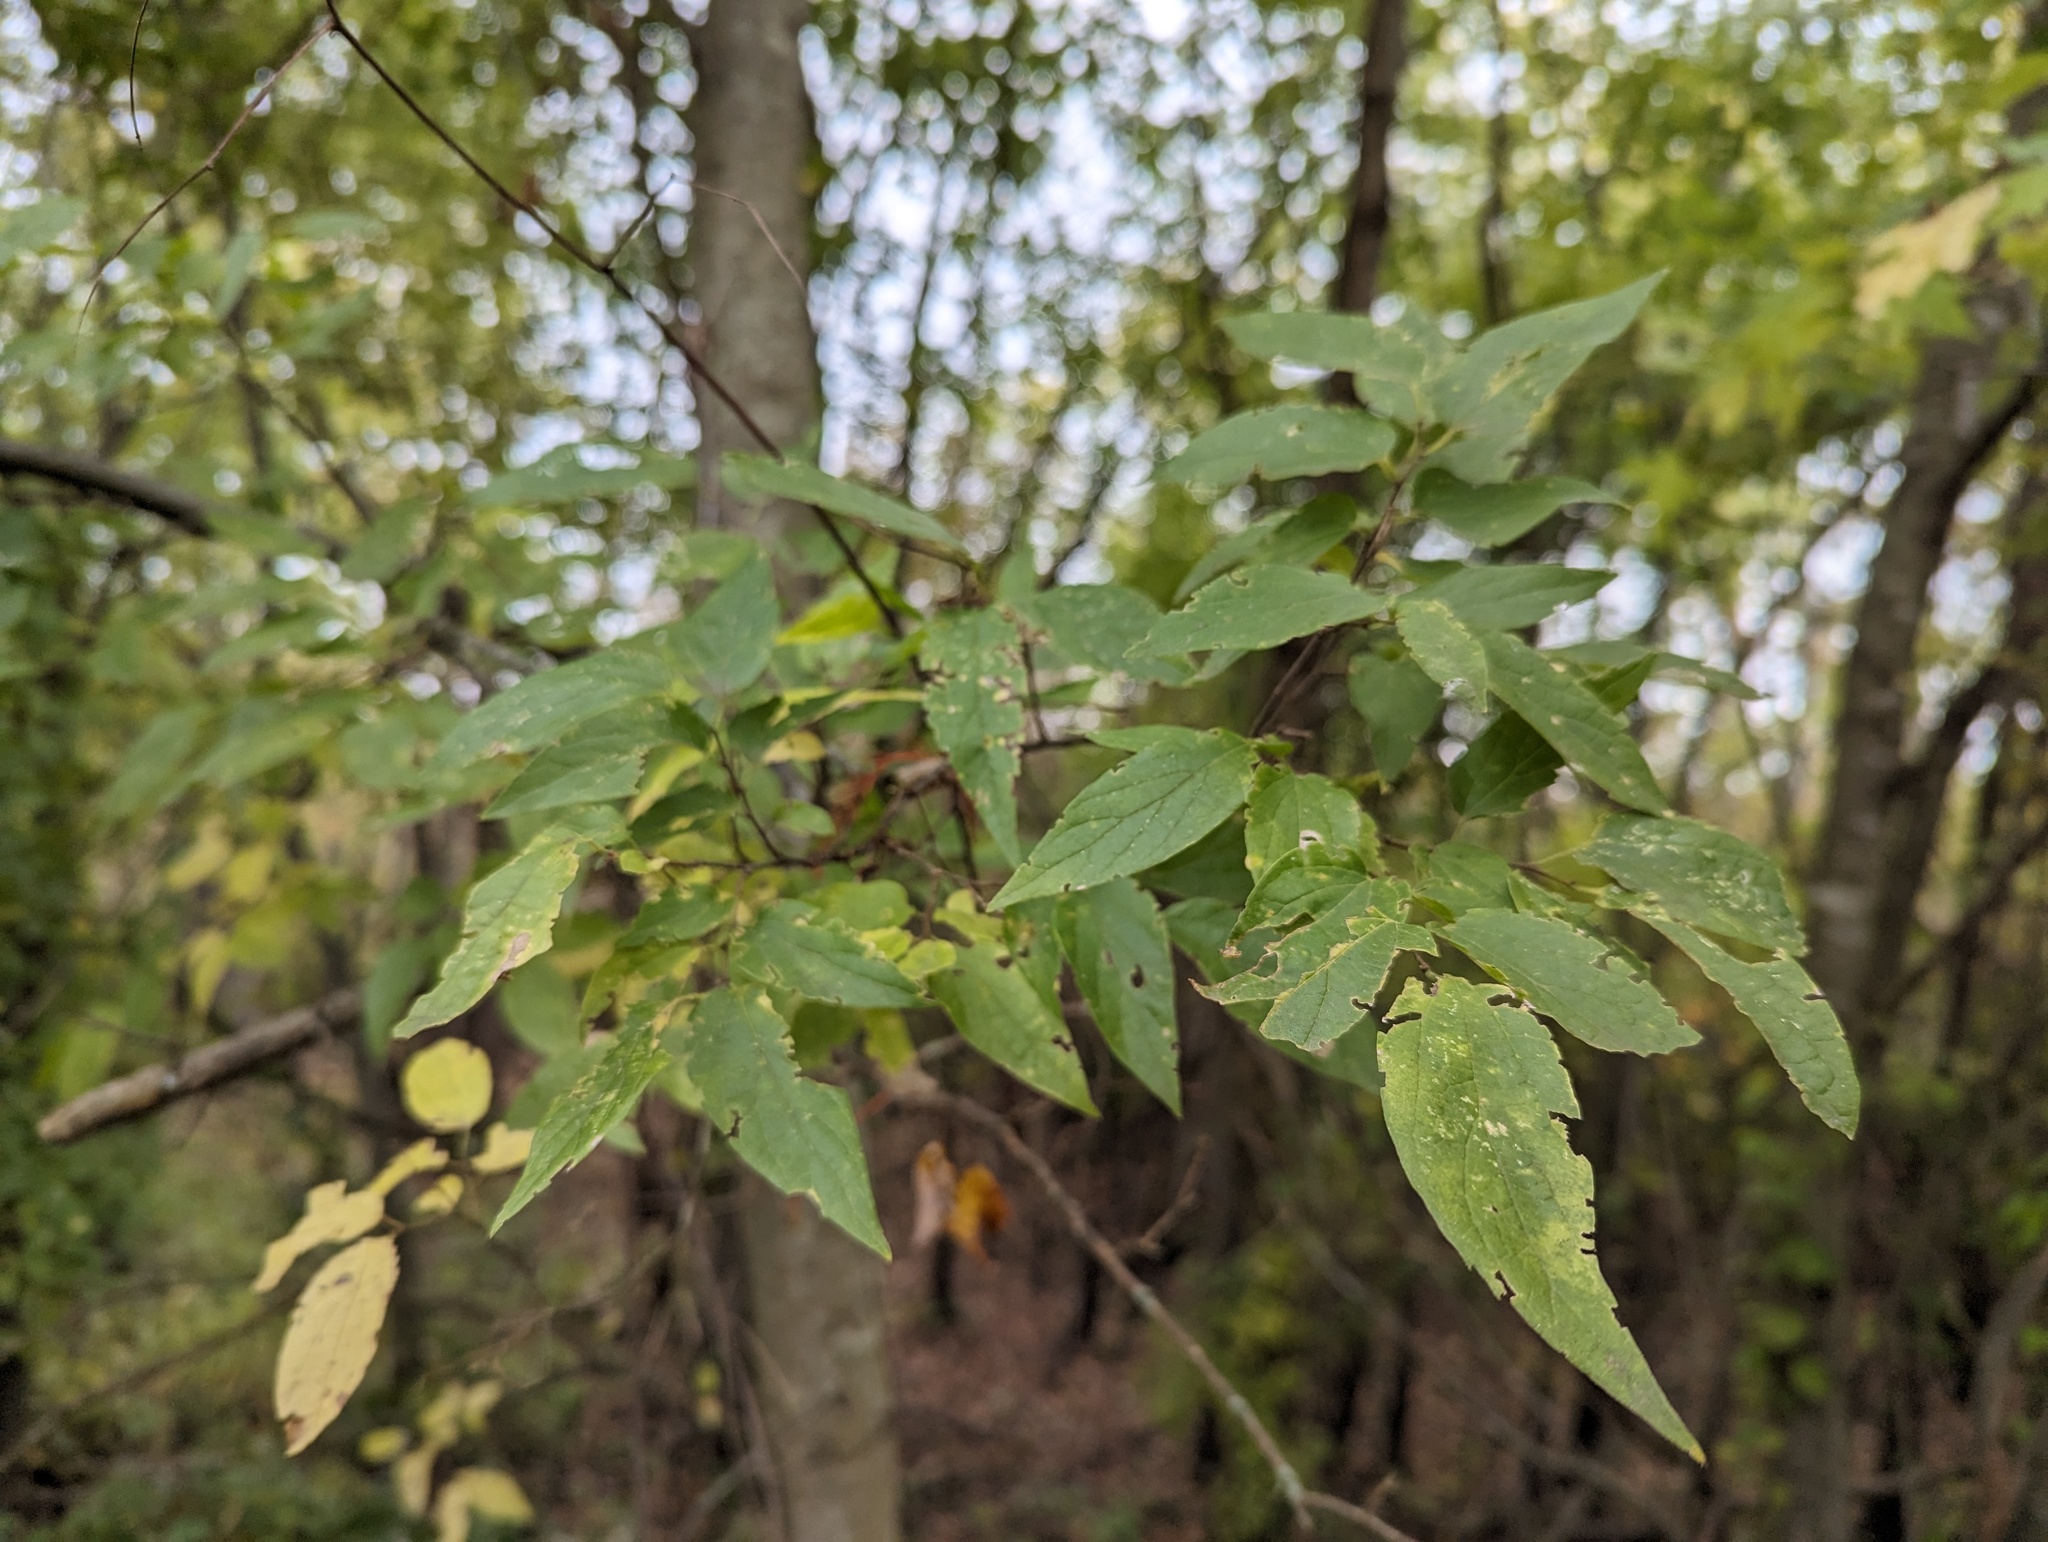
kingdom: Plantae
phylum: Tracheophyta
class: Magnoliopsida
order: Rosales
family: Cannabaceae
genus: Celtis
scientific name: Celtis laevigata
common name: Sugarberry
